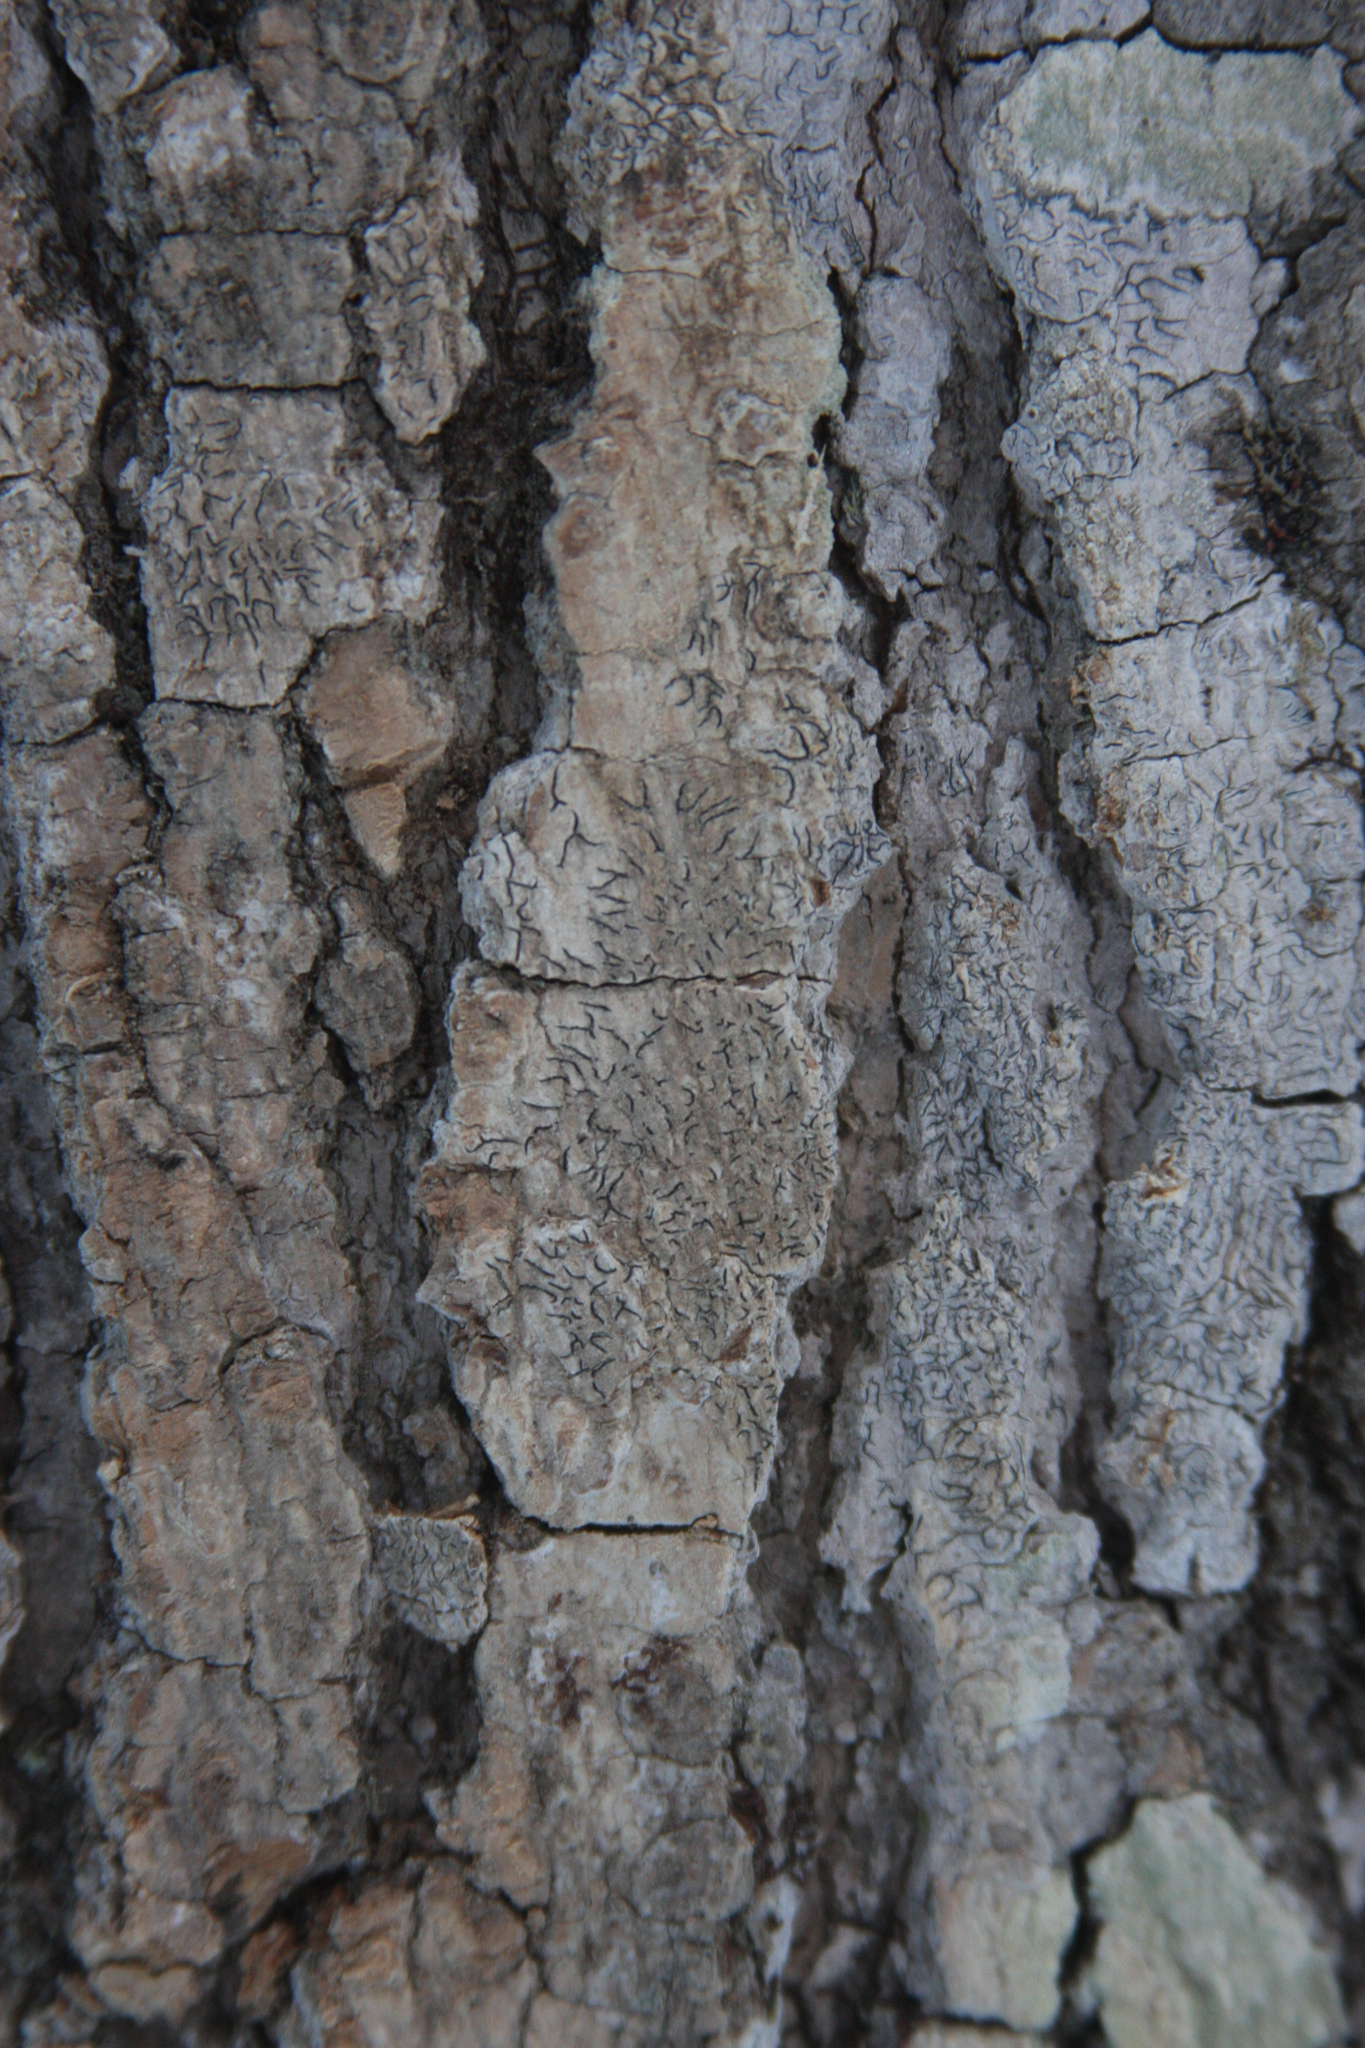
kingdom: Fungi
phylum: Ascomycota
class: Lecanoromycetes
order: Ostropales
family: Graphidaceae
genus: Graphis
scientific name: Graphis scripta
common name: Script lichen
